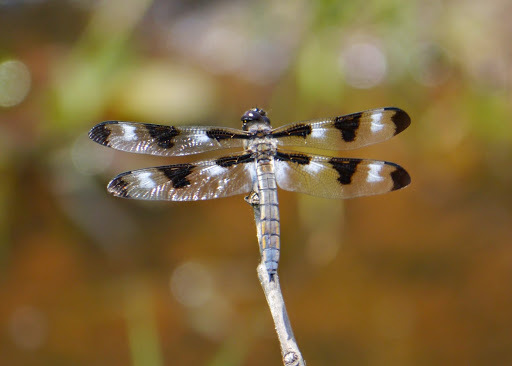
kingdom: Animalia
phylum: Arthropoda
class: Insecta
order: Odonata
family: Libellulidae
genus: Libellula
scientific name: Libellula pulchella
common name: Twelve-spotted skimmer
